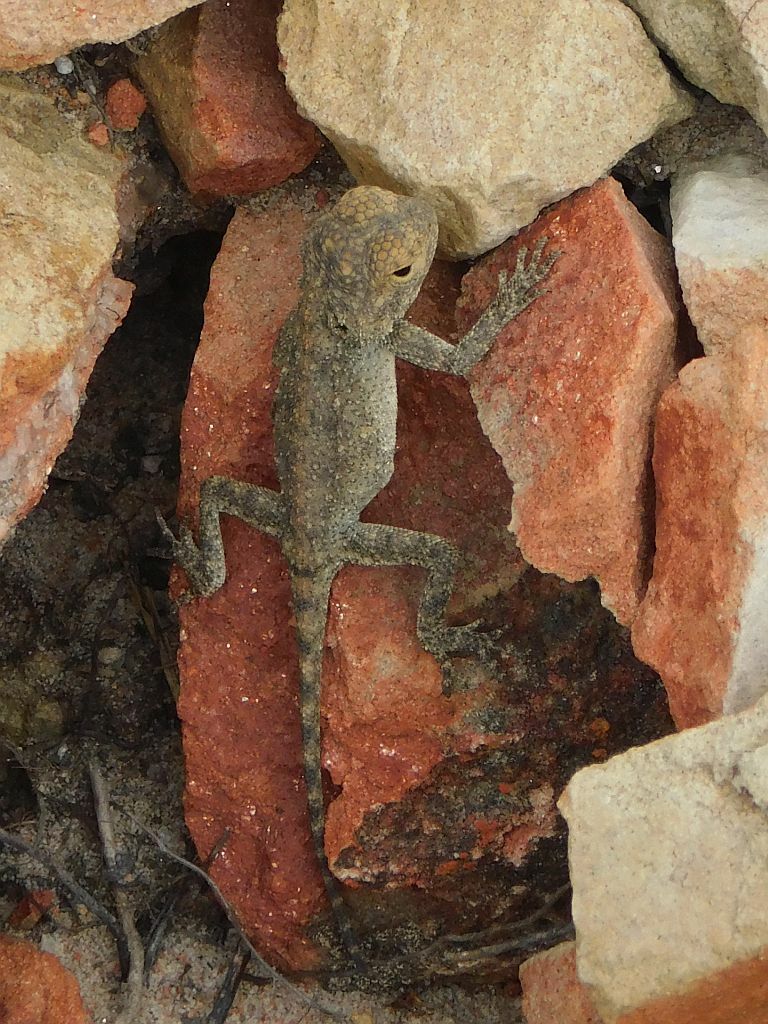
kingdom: Animalia
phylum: Chordata
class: Squamata
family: Agamidae
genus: Agama
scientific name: Agama atra
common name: Southern african rock agama
